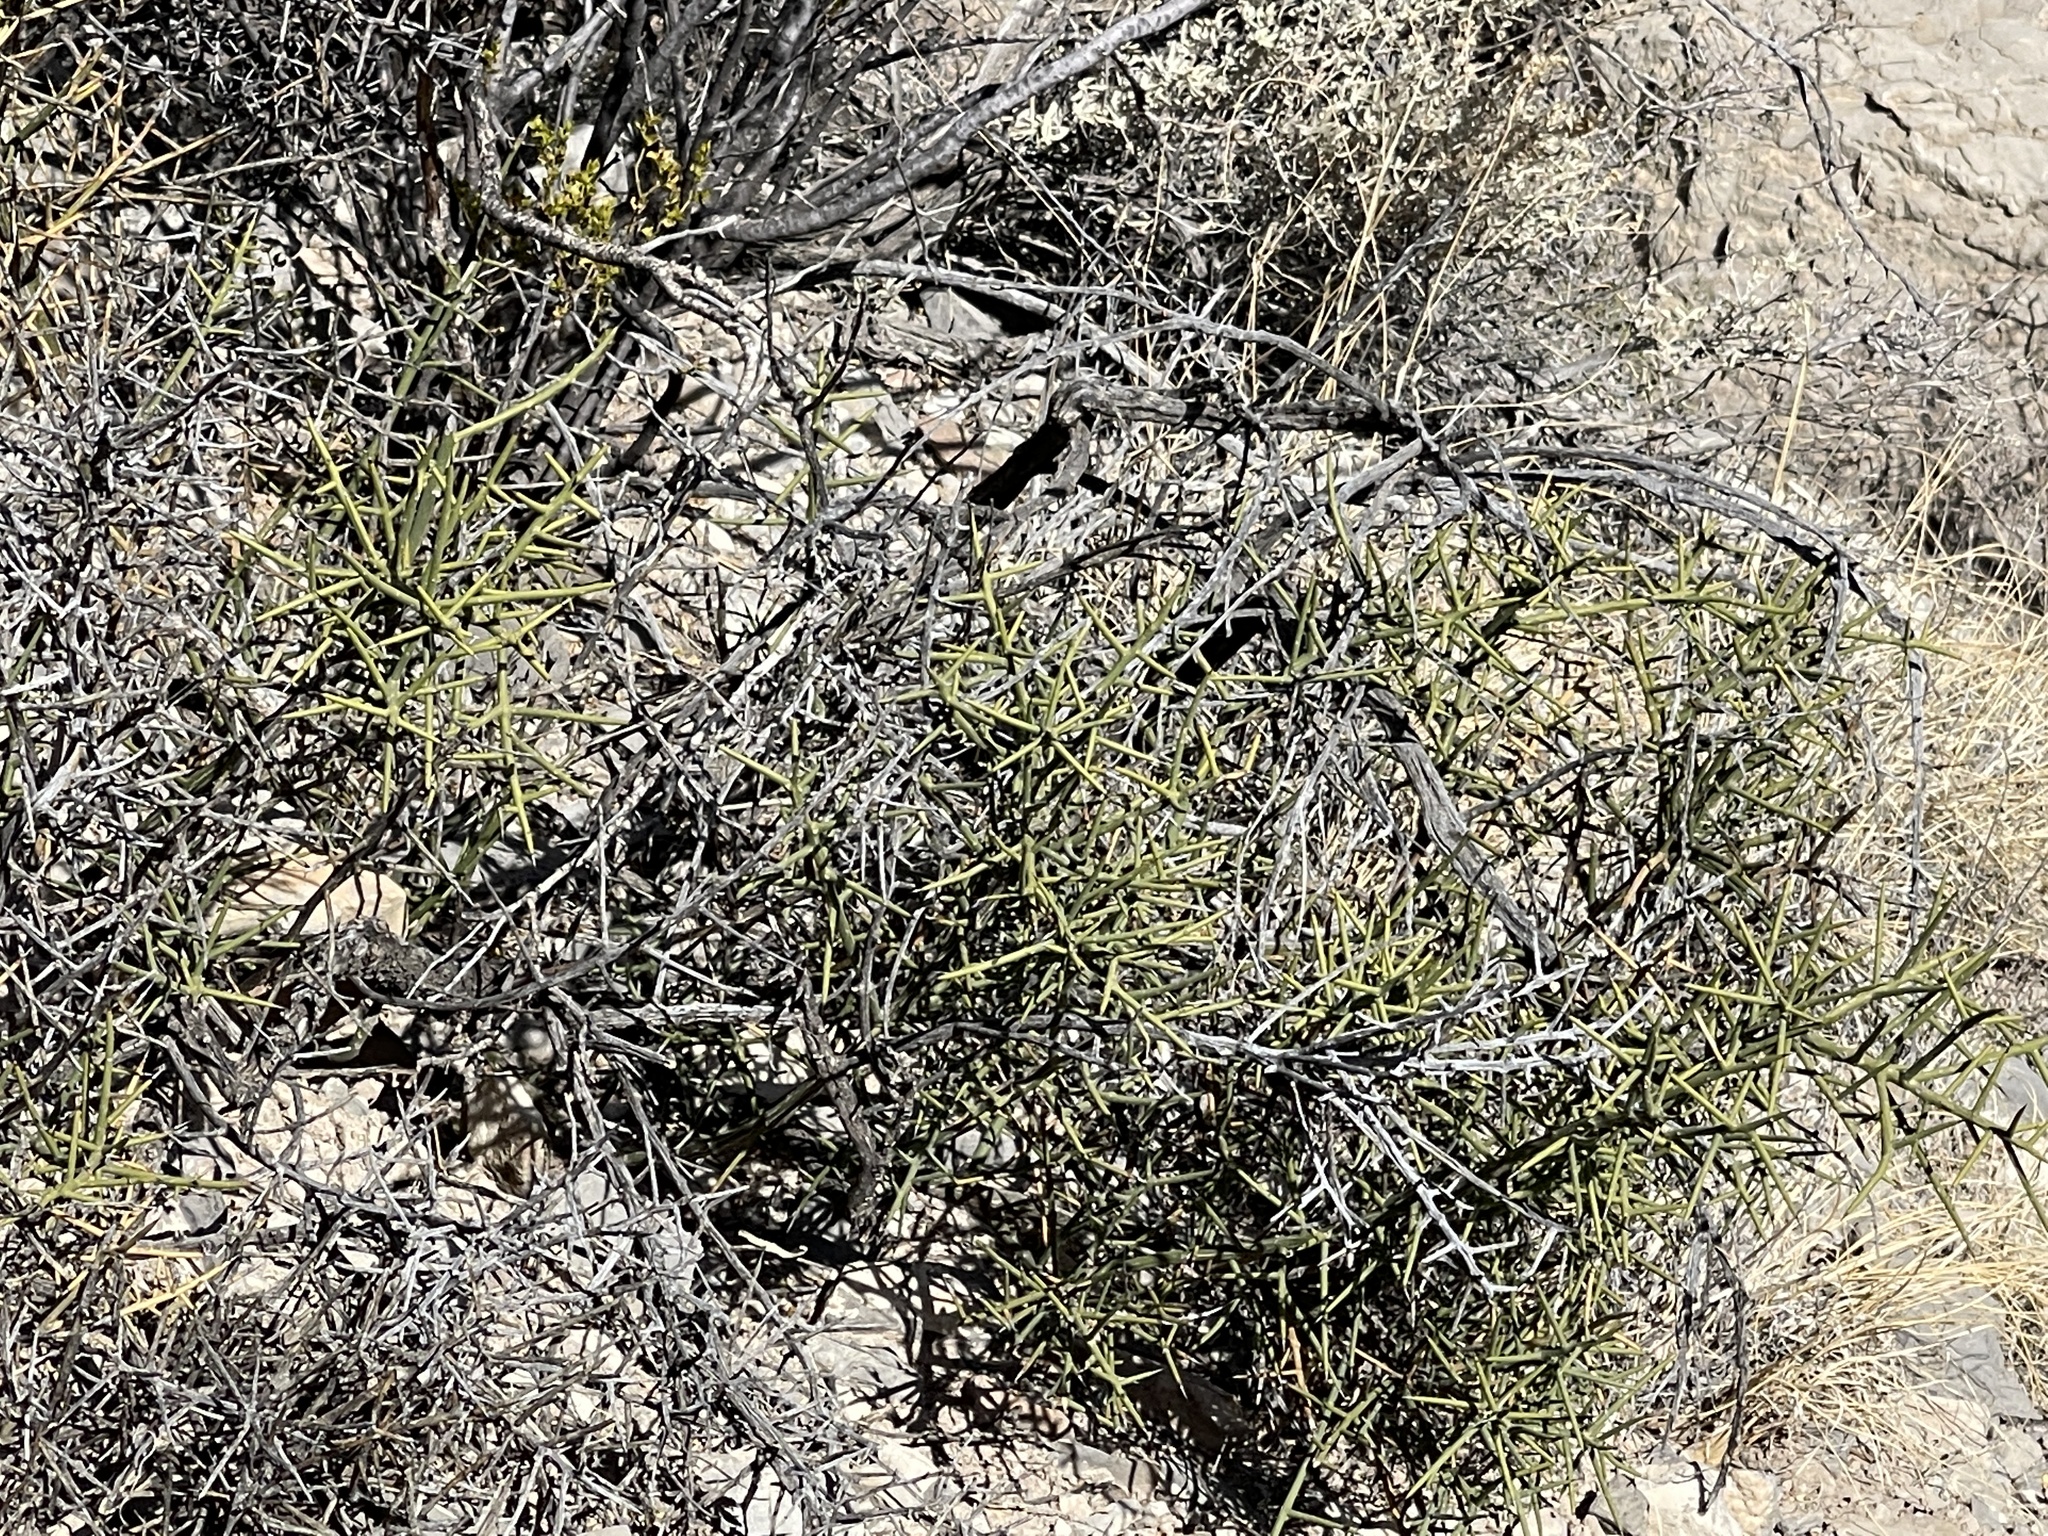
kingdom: Plantae
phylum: Tracheophyta
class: Magnoliopsida
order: Brassicales
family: Koeberliniaceae
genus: Koeberlinia
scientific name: Koeberlinia spinosa
